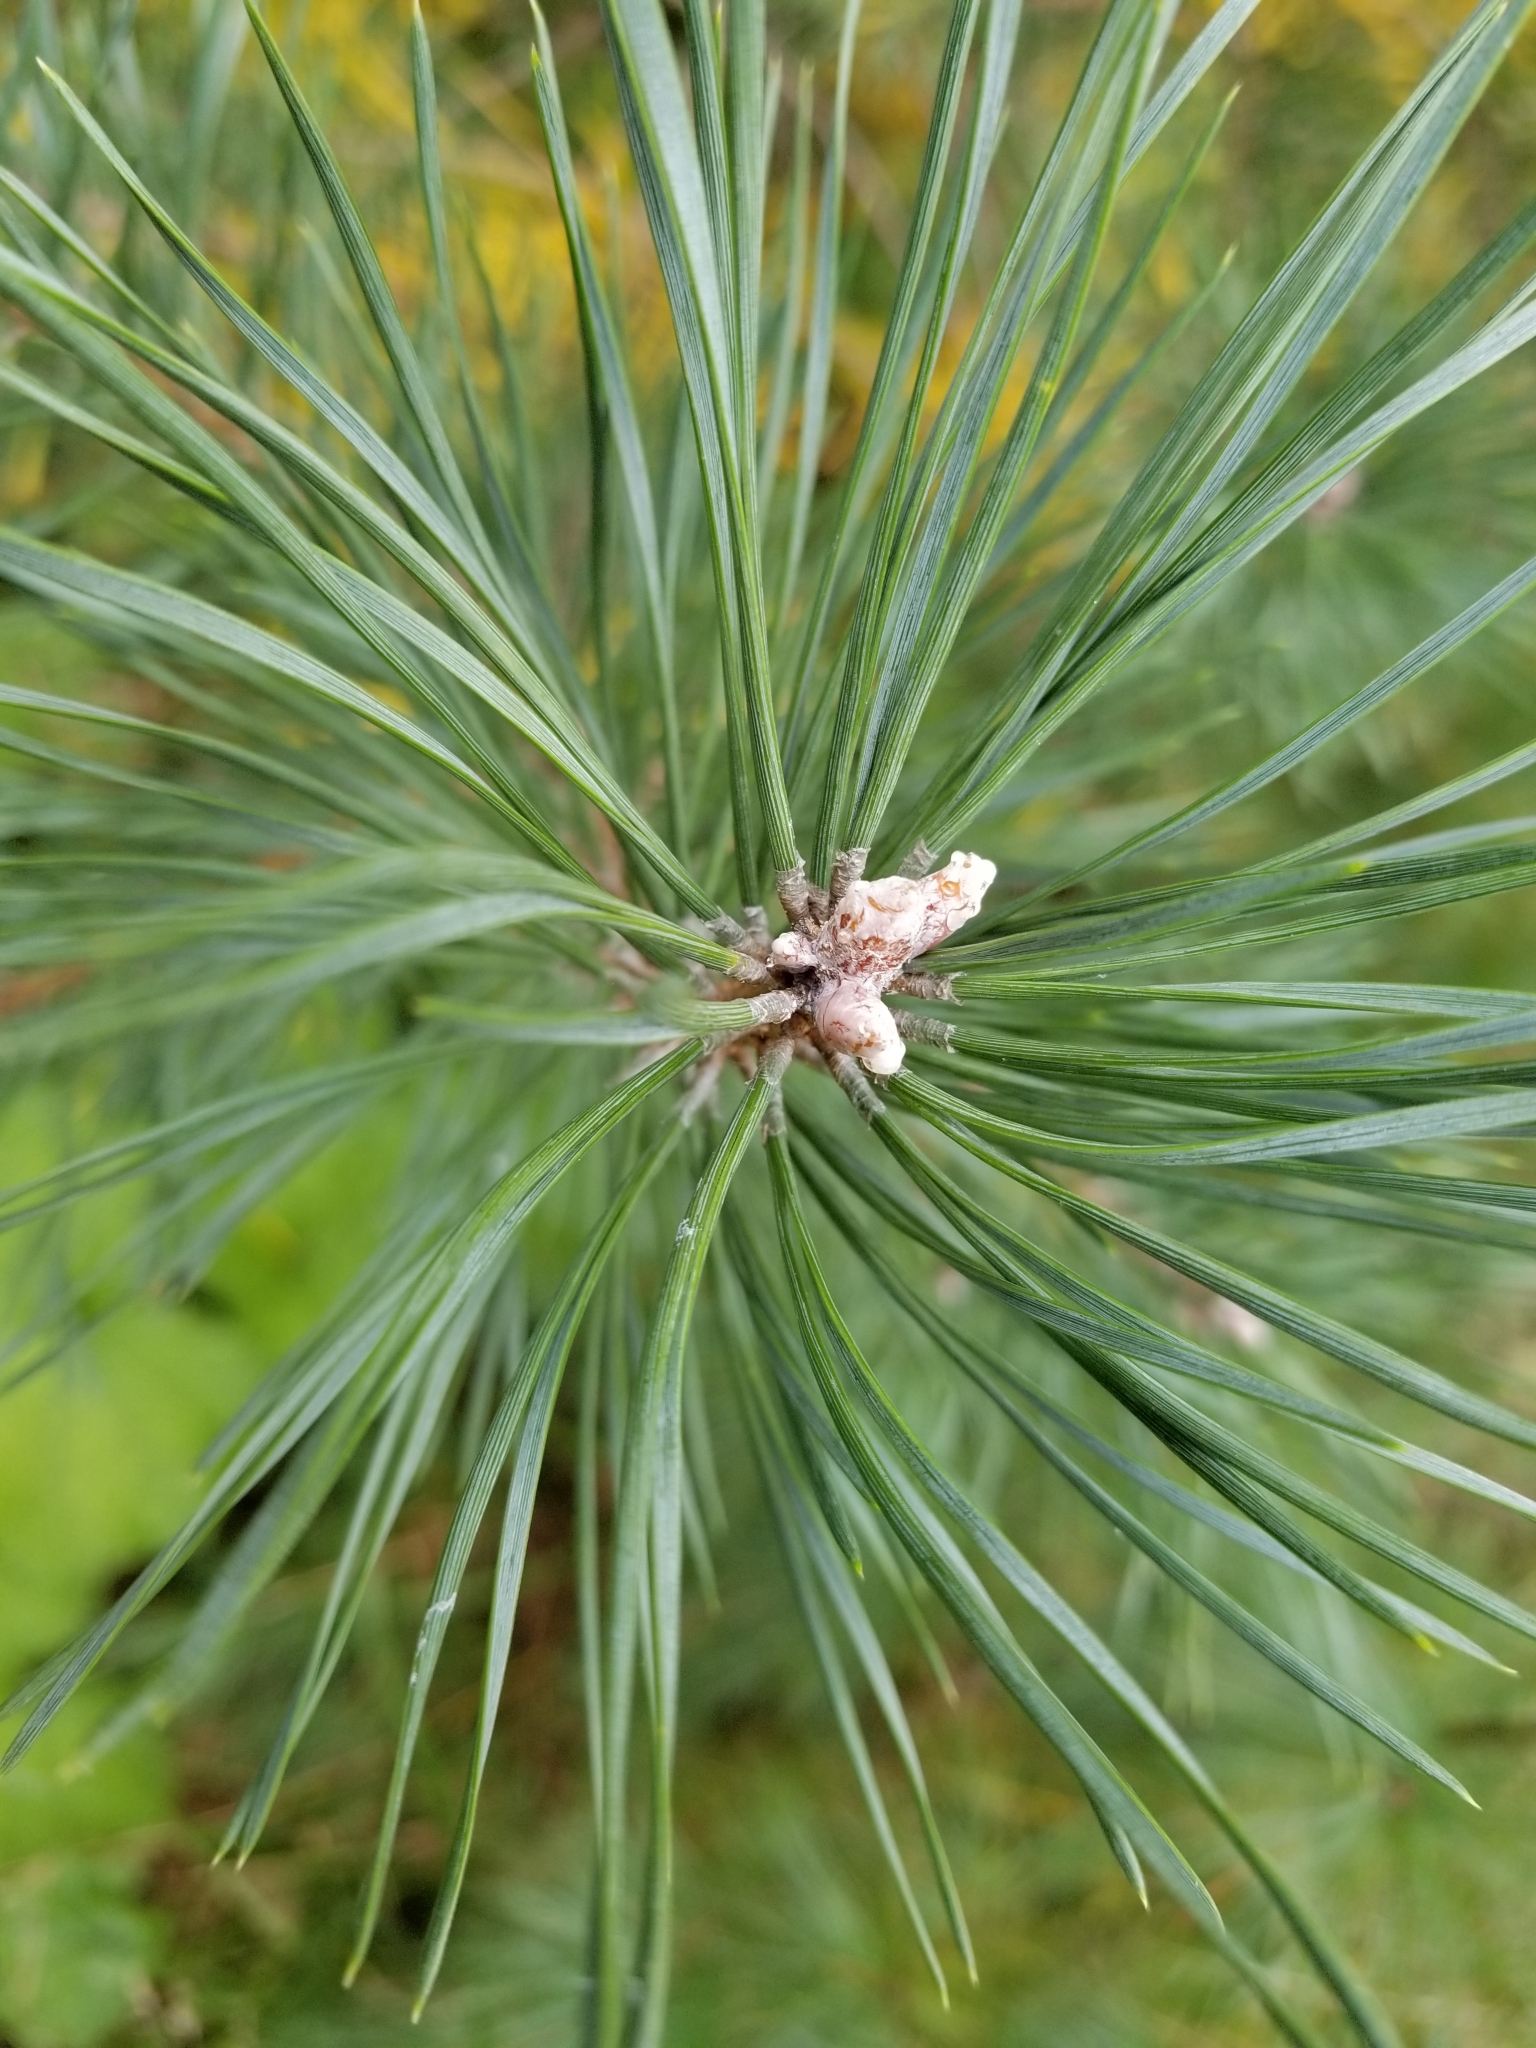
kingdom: Plantae
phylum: Tracheophyta
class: Pinopsida
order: Pinales
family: Pinaceae
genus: Pinus
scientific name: Pinus resinosa
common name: Norway pine
